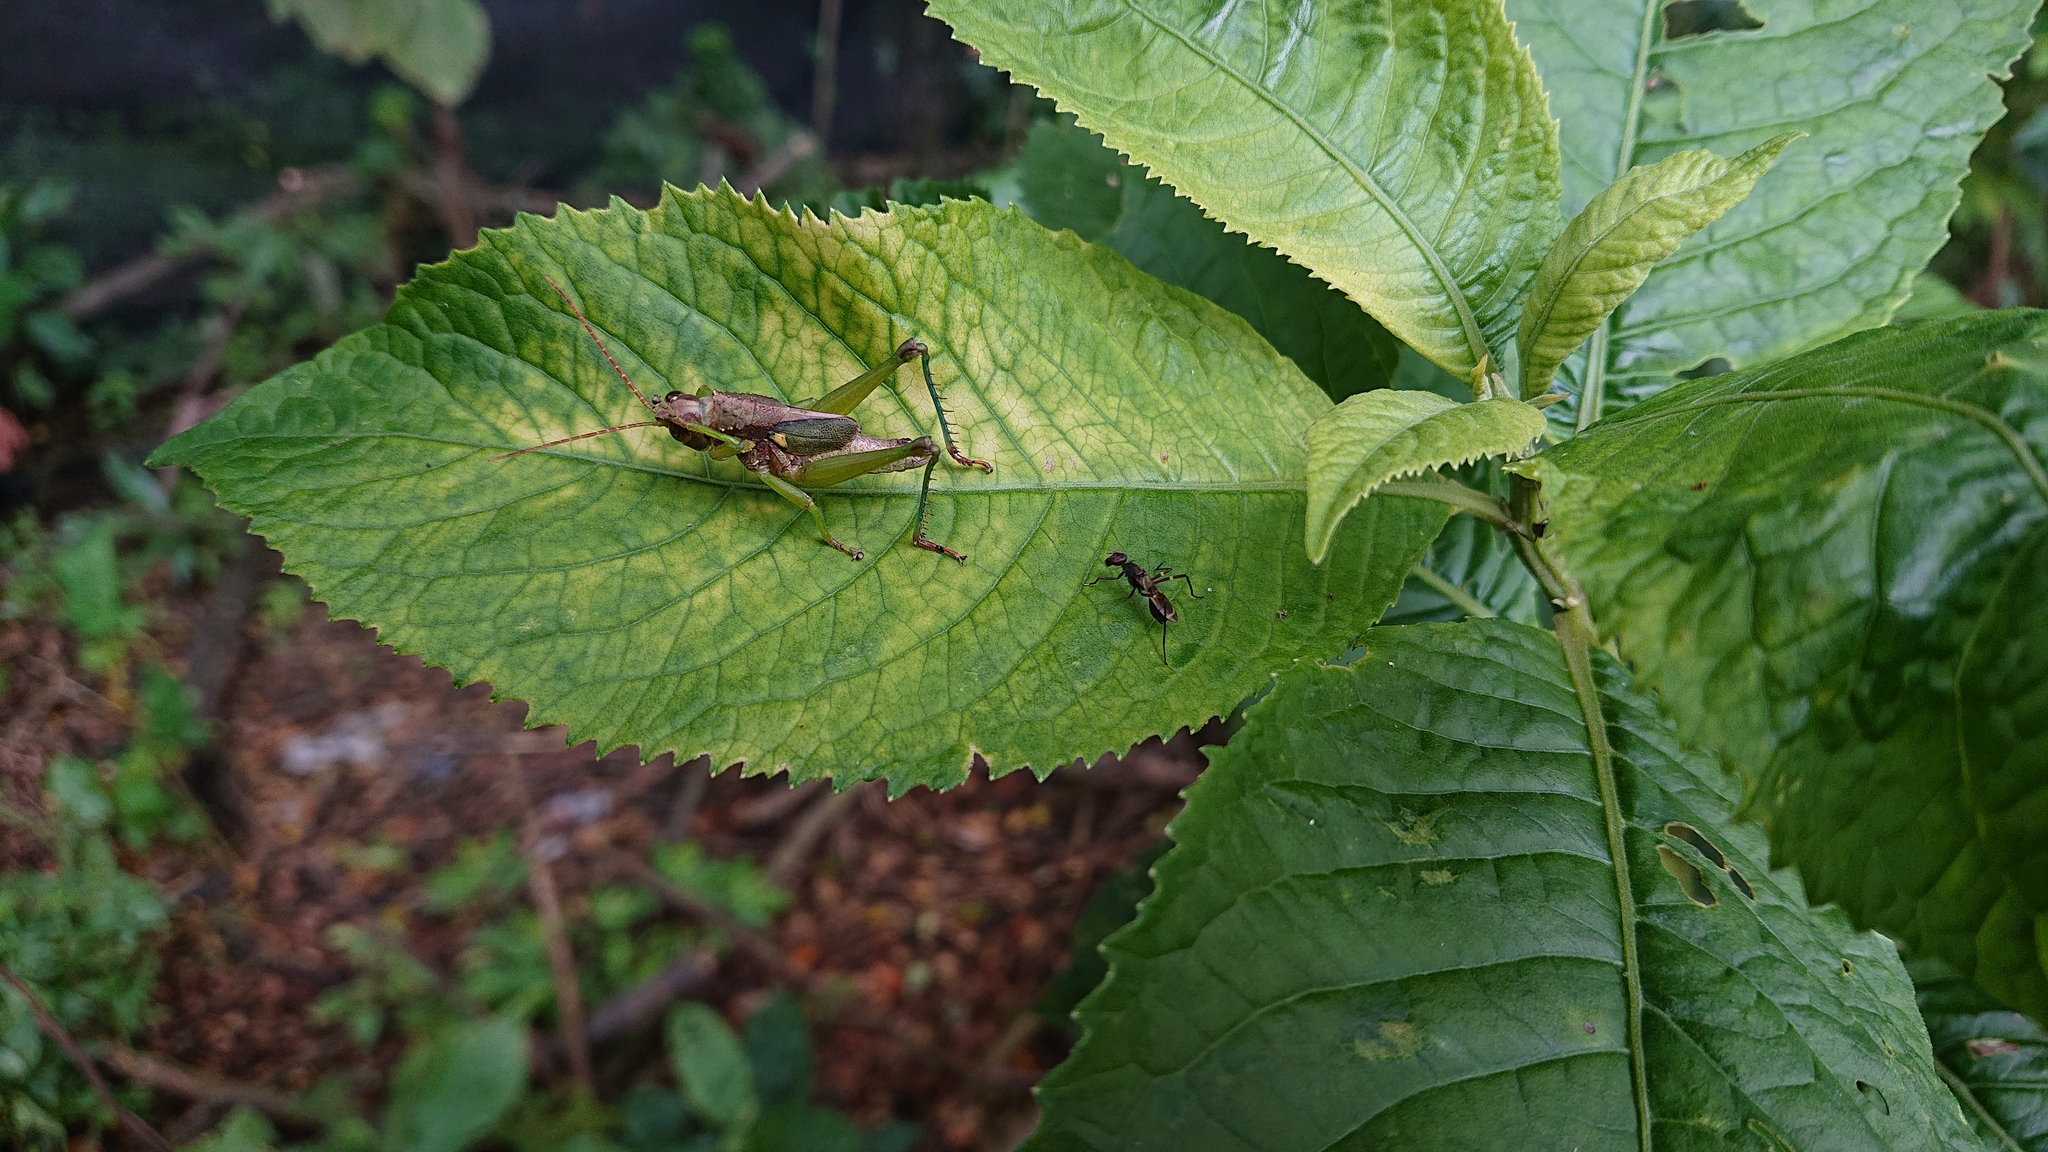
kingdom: Animalia
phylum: Arthropoda
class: Insecta
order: Orthoptera
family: Romaleidae
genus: Agriacris
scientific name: Agriacris aequatoriana
